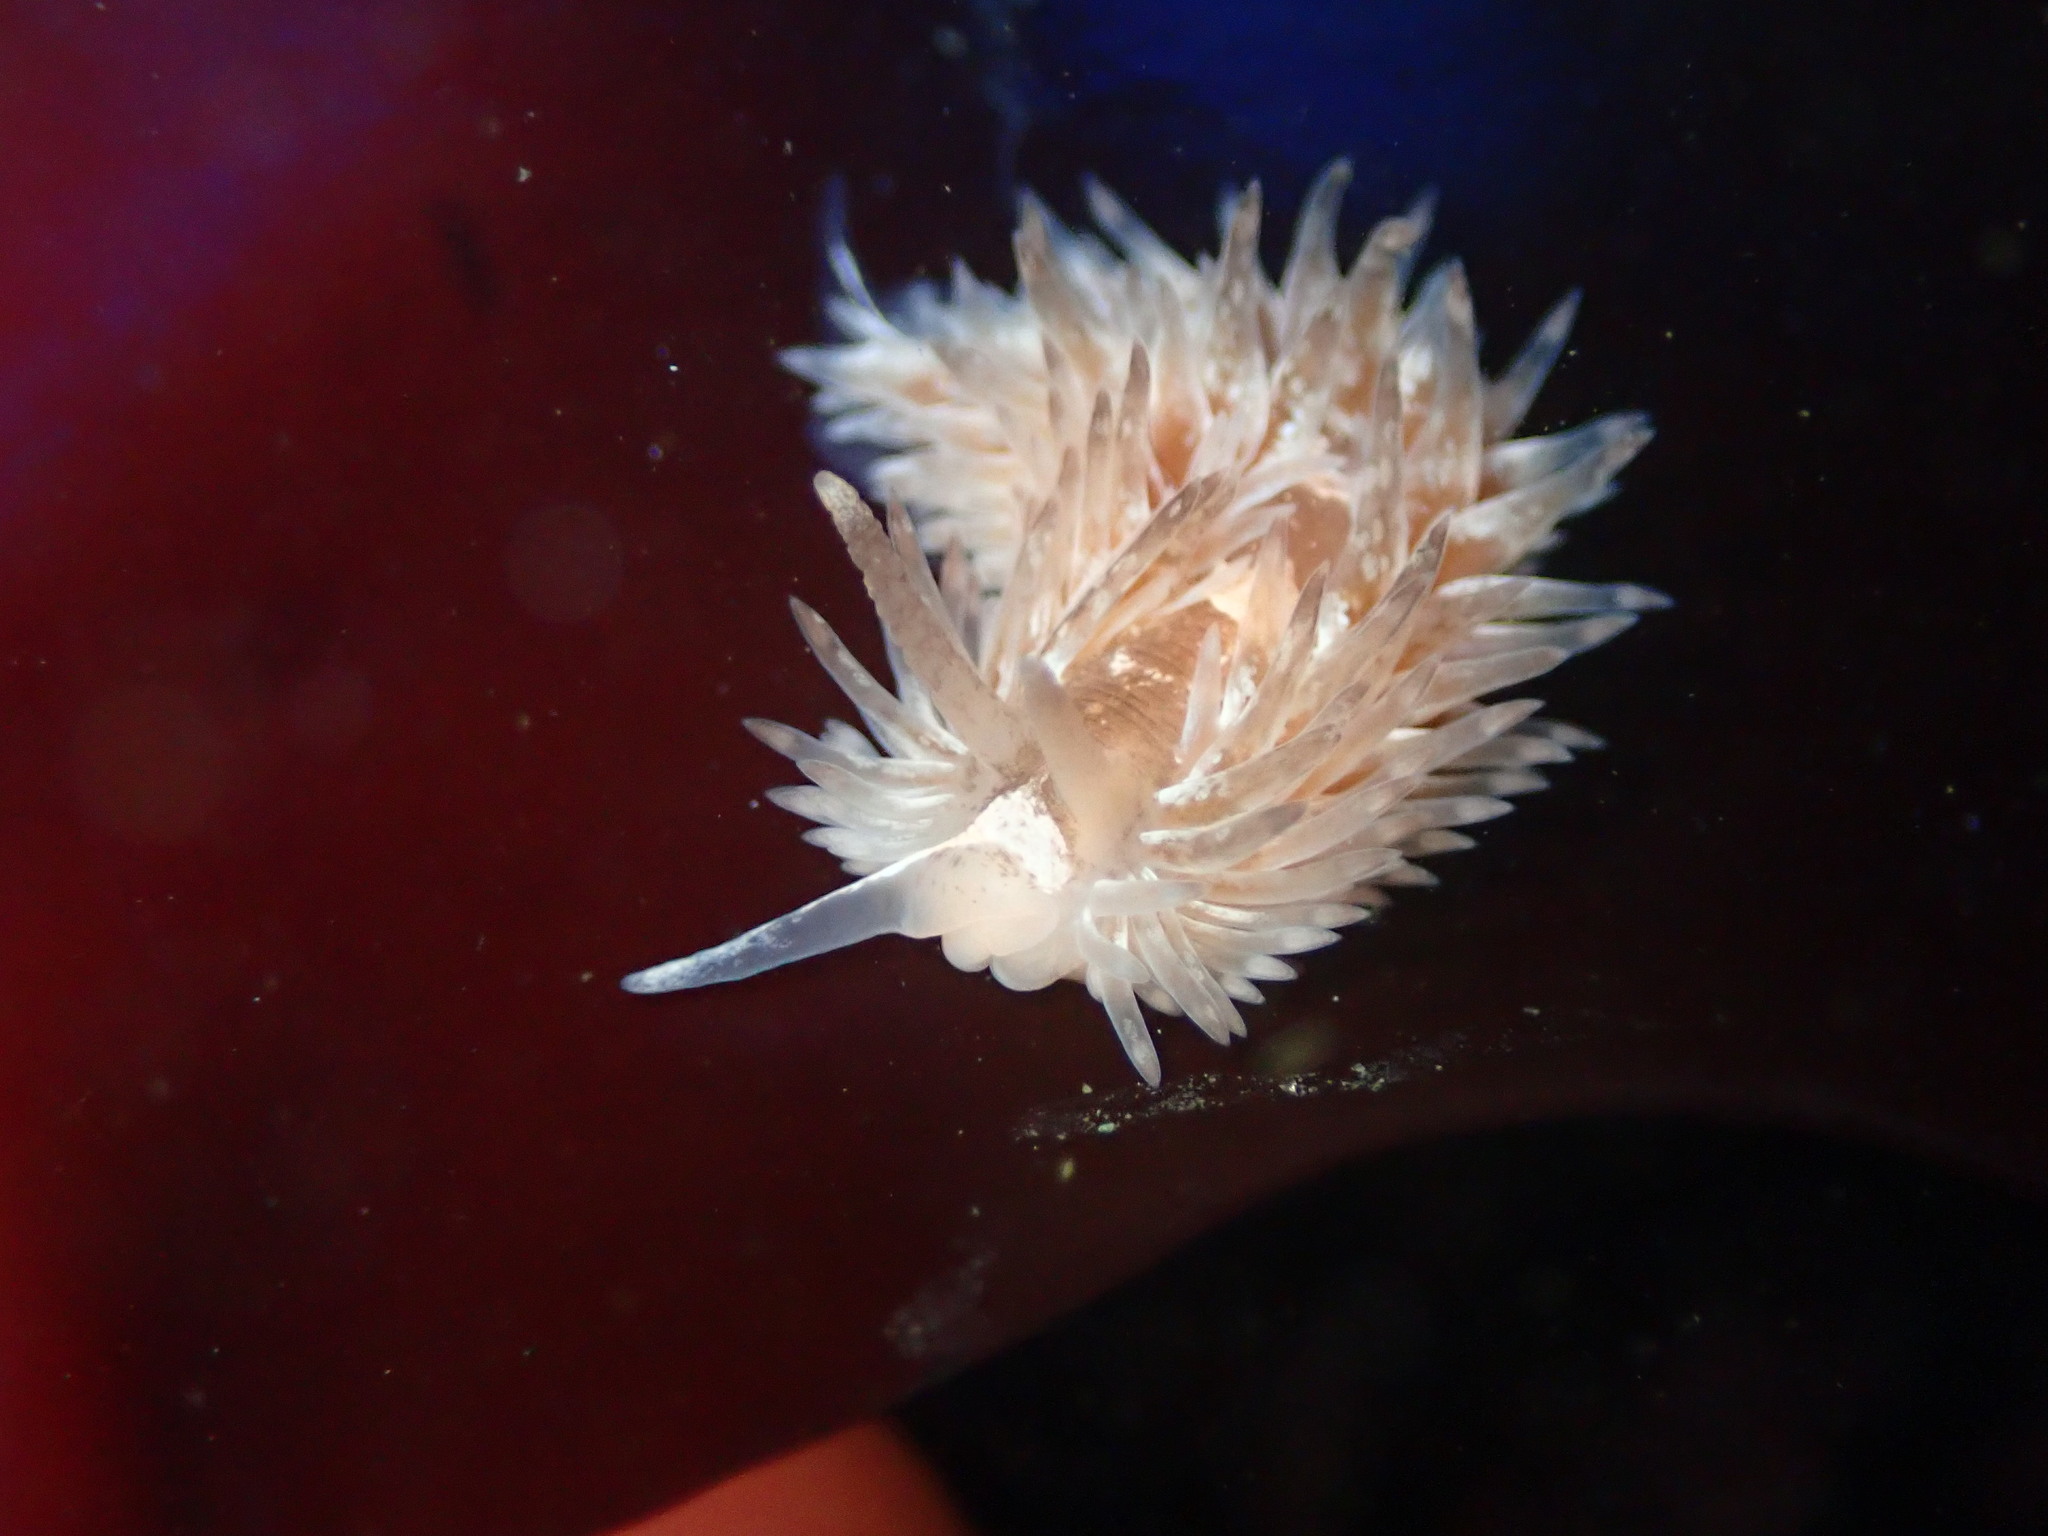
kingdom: Animalia
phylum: Mollusca
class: Gastropoda
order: Nudibranchia
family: Aeolidiidae
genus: Aeolidia
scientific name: Aeolidia loui
